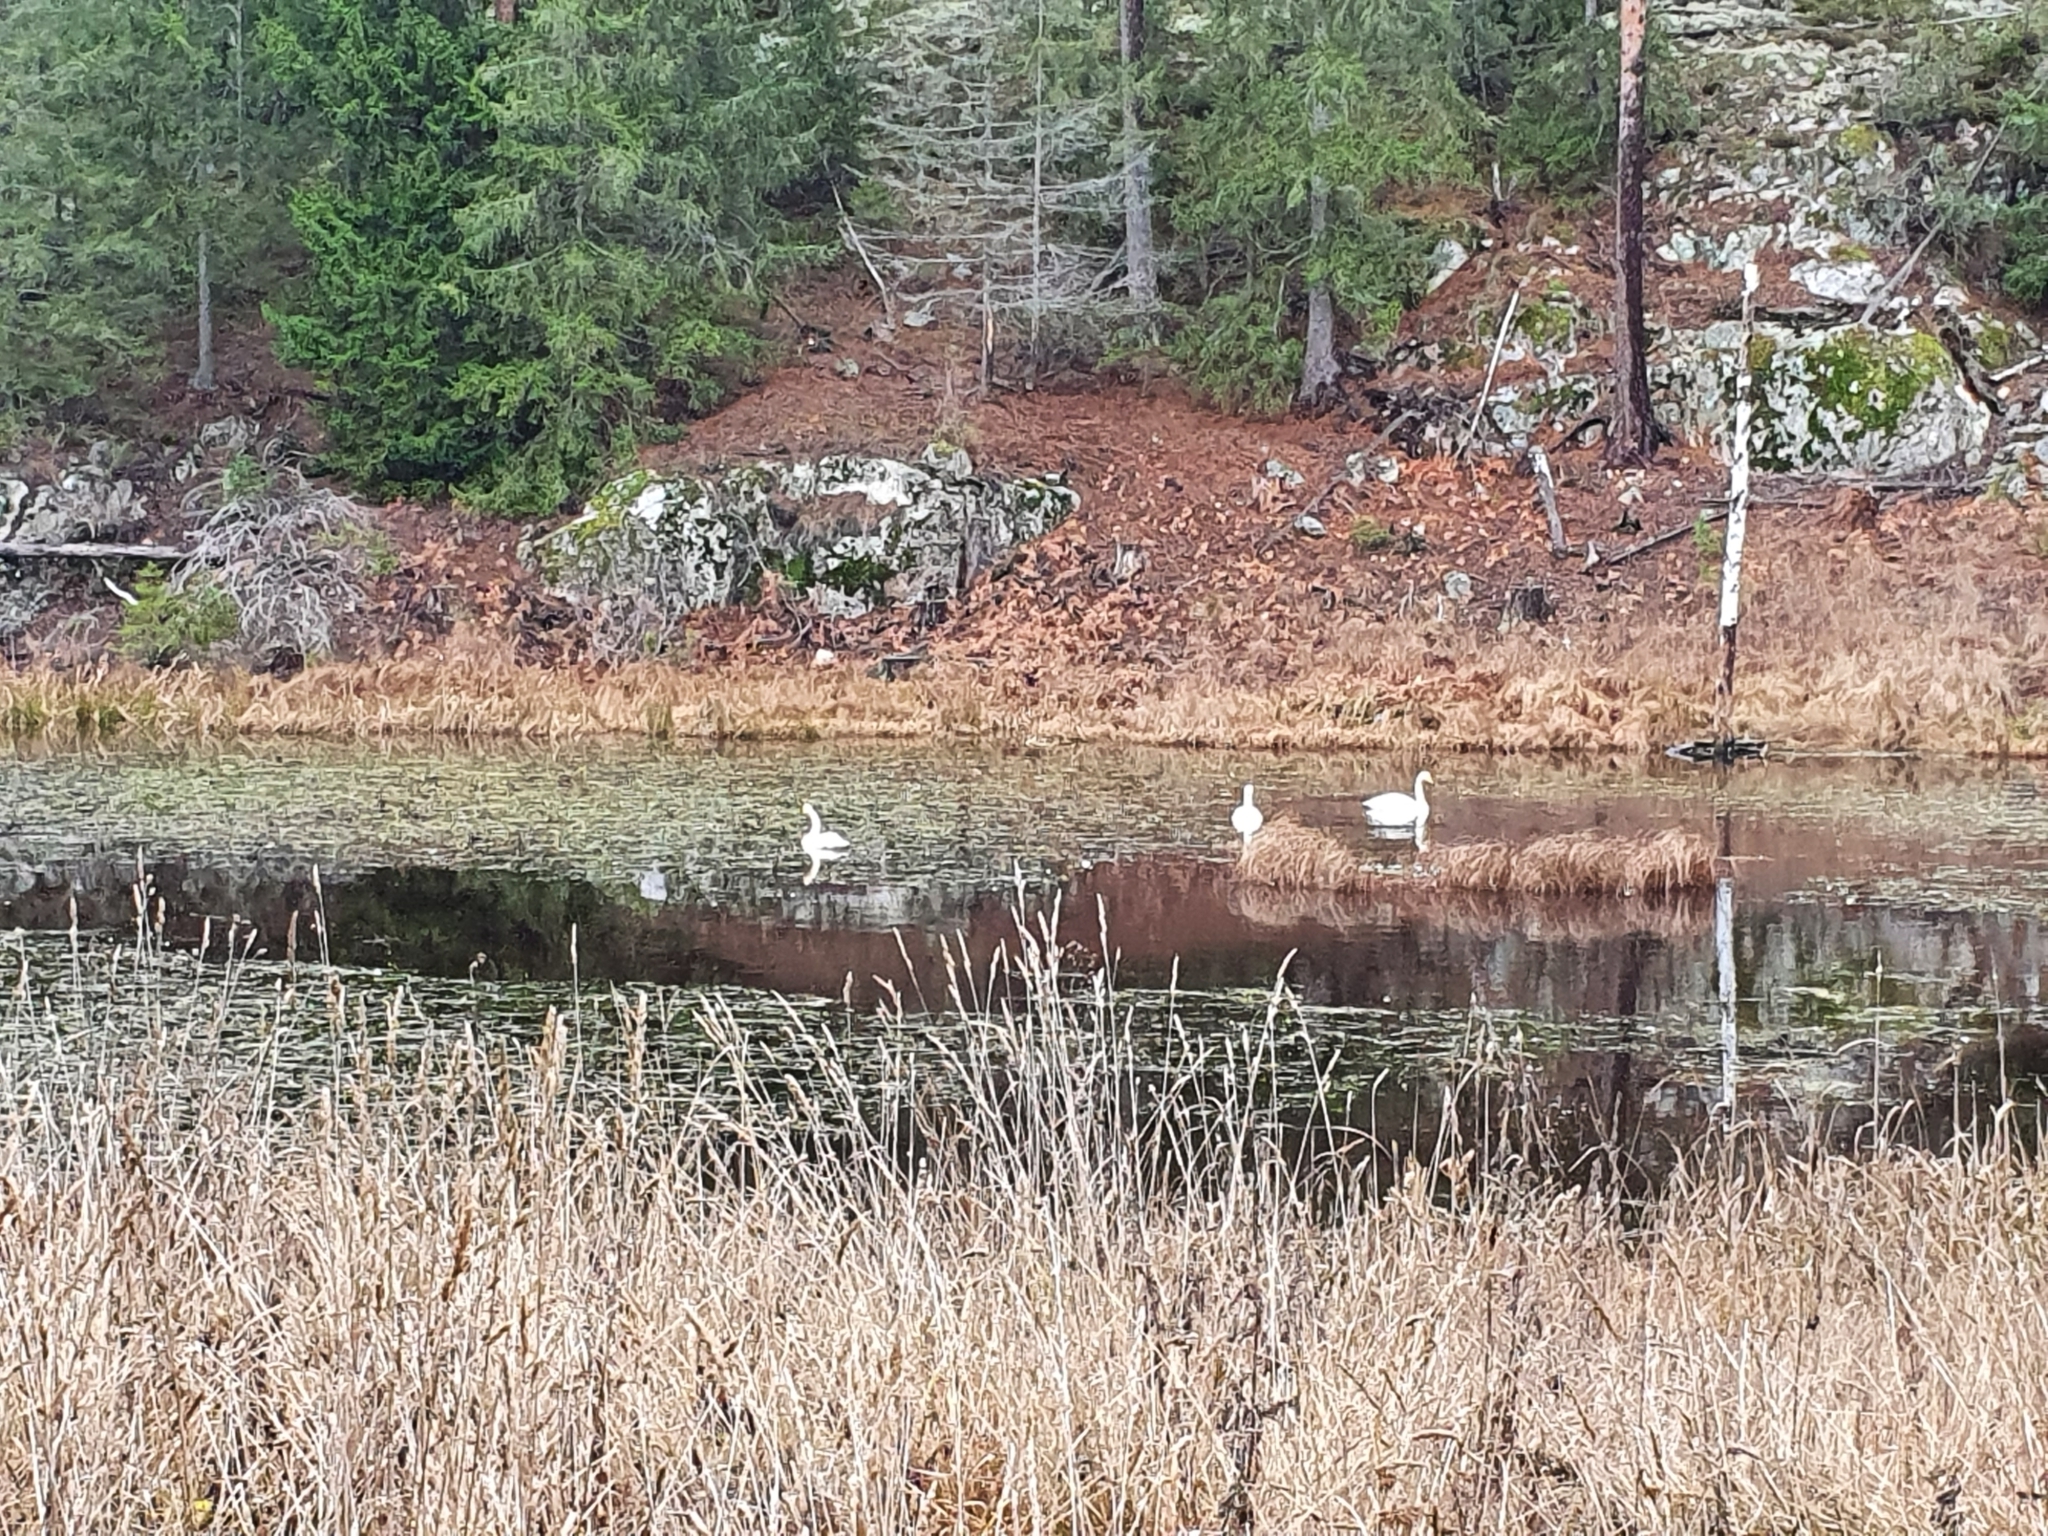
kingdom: Animalia
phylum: Chordata
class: Aves
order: Anseriformes
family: Anatidae
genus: Cygnus
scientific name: Cygnus cygnus
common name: Whooper swan
